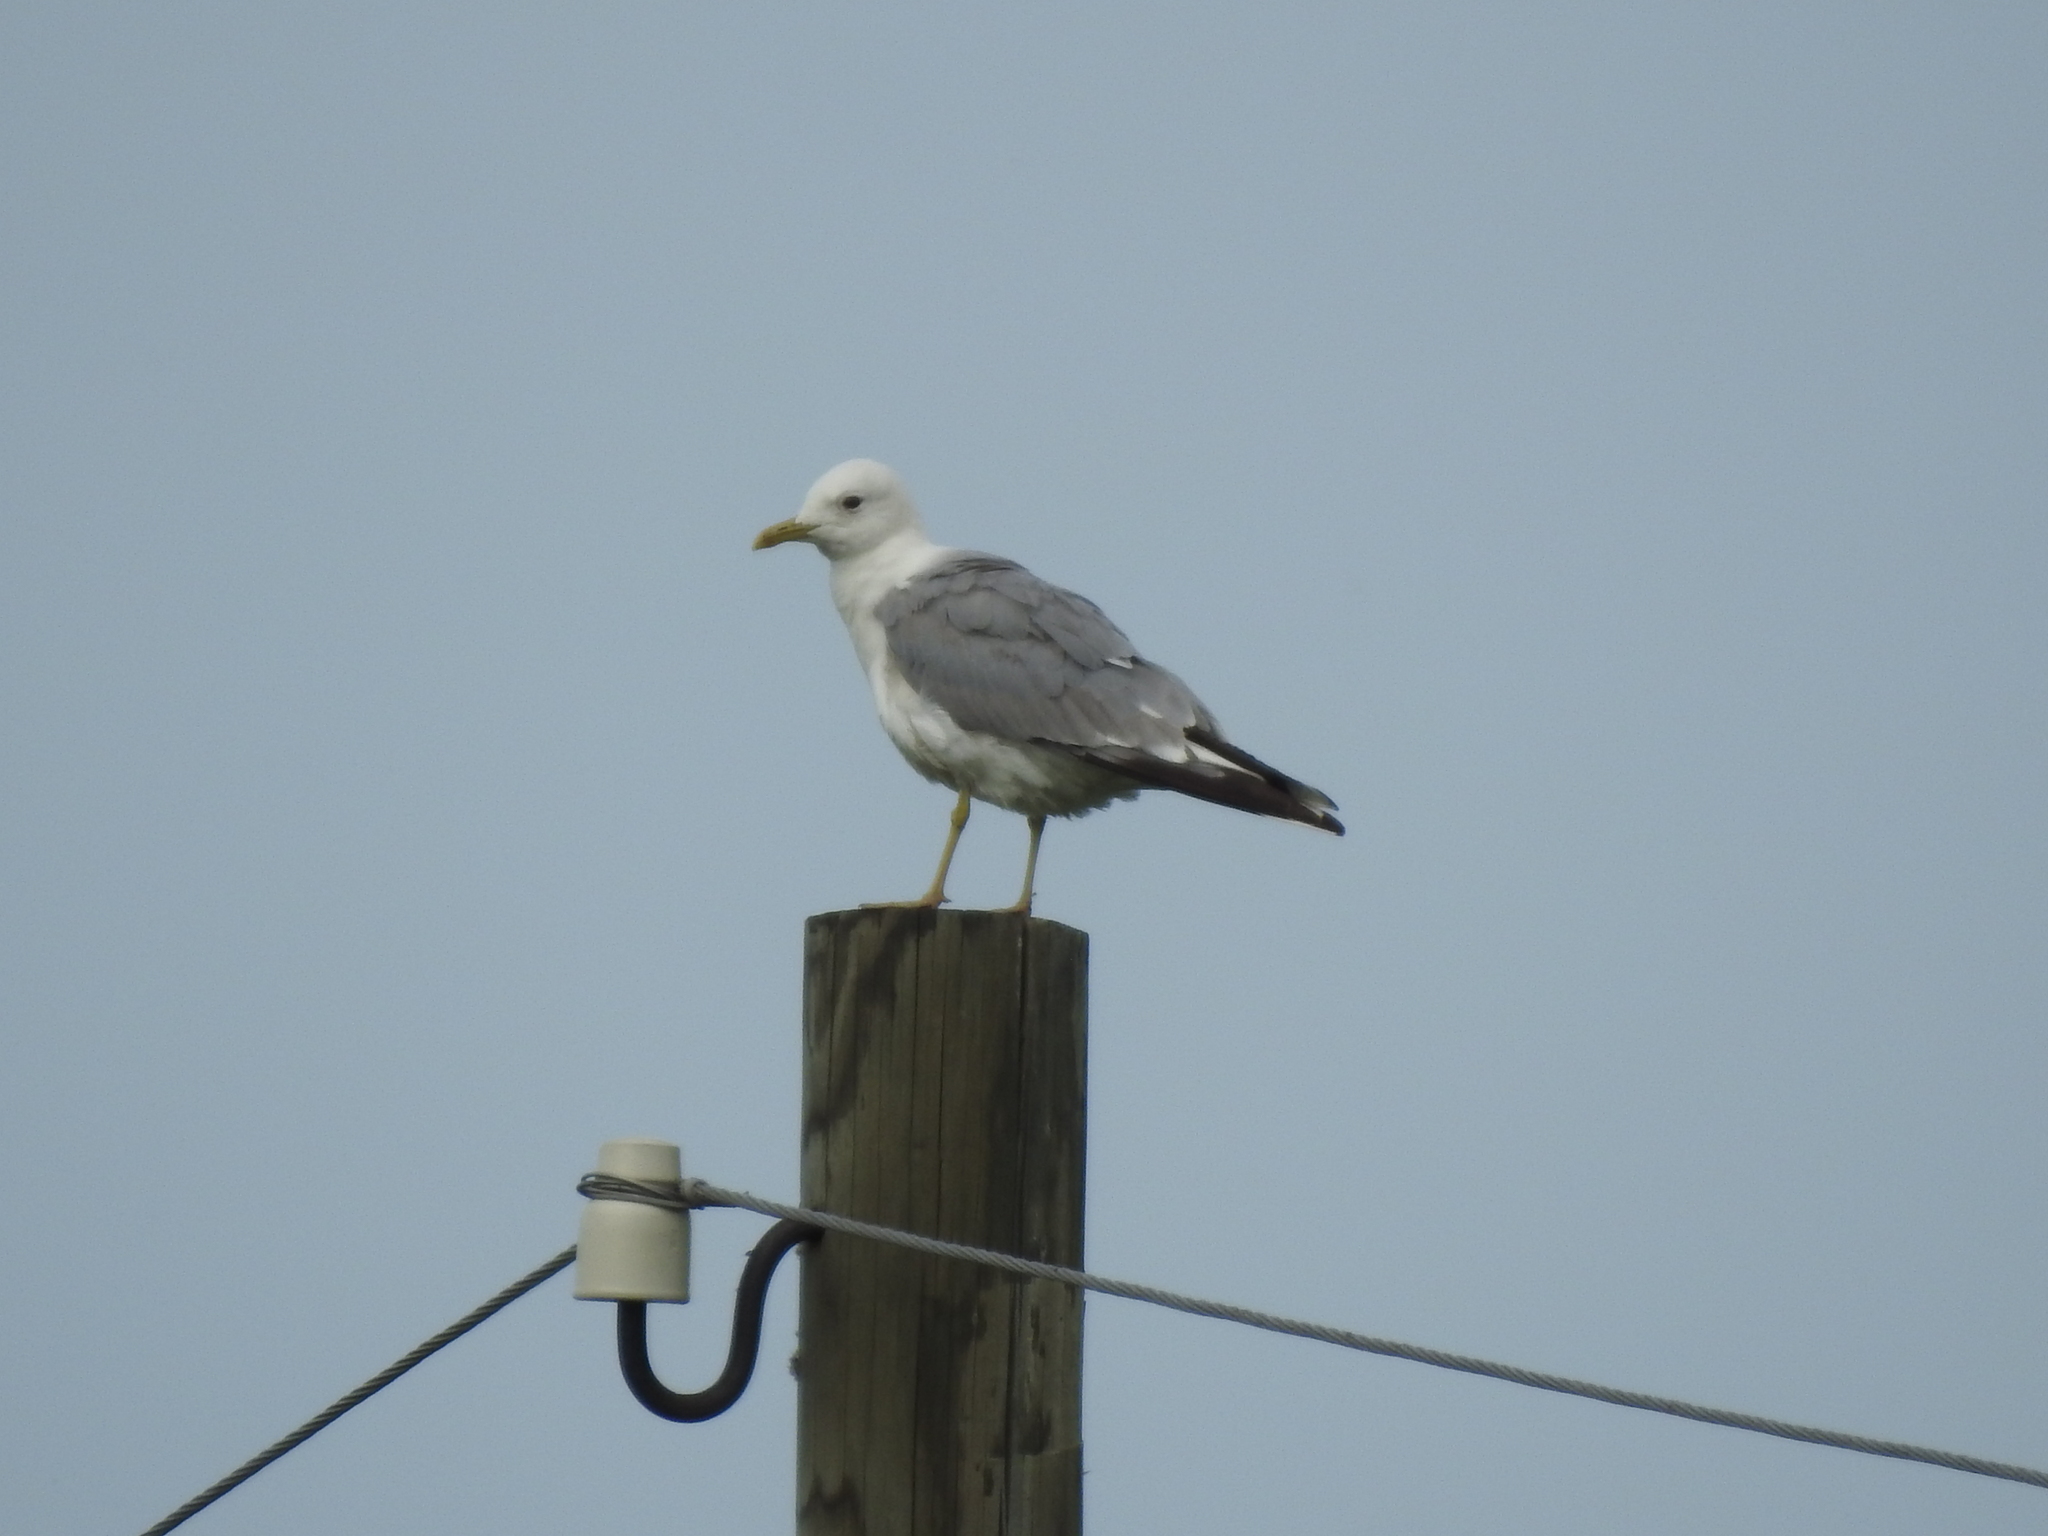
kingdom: Animalia
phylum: Chordata
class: Aves
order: Charadriiformes
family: Laridae
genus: Larus
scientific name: Larus canus
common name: Mew gull
